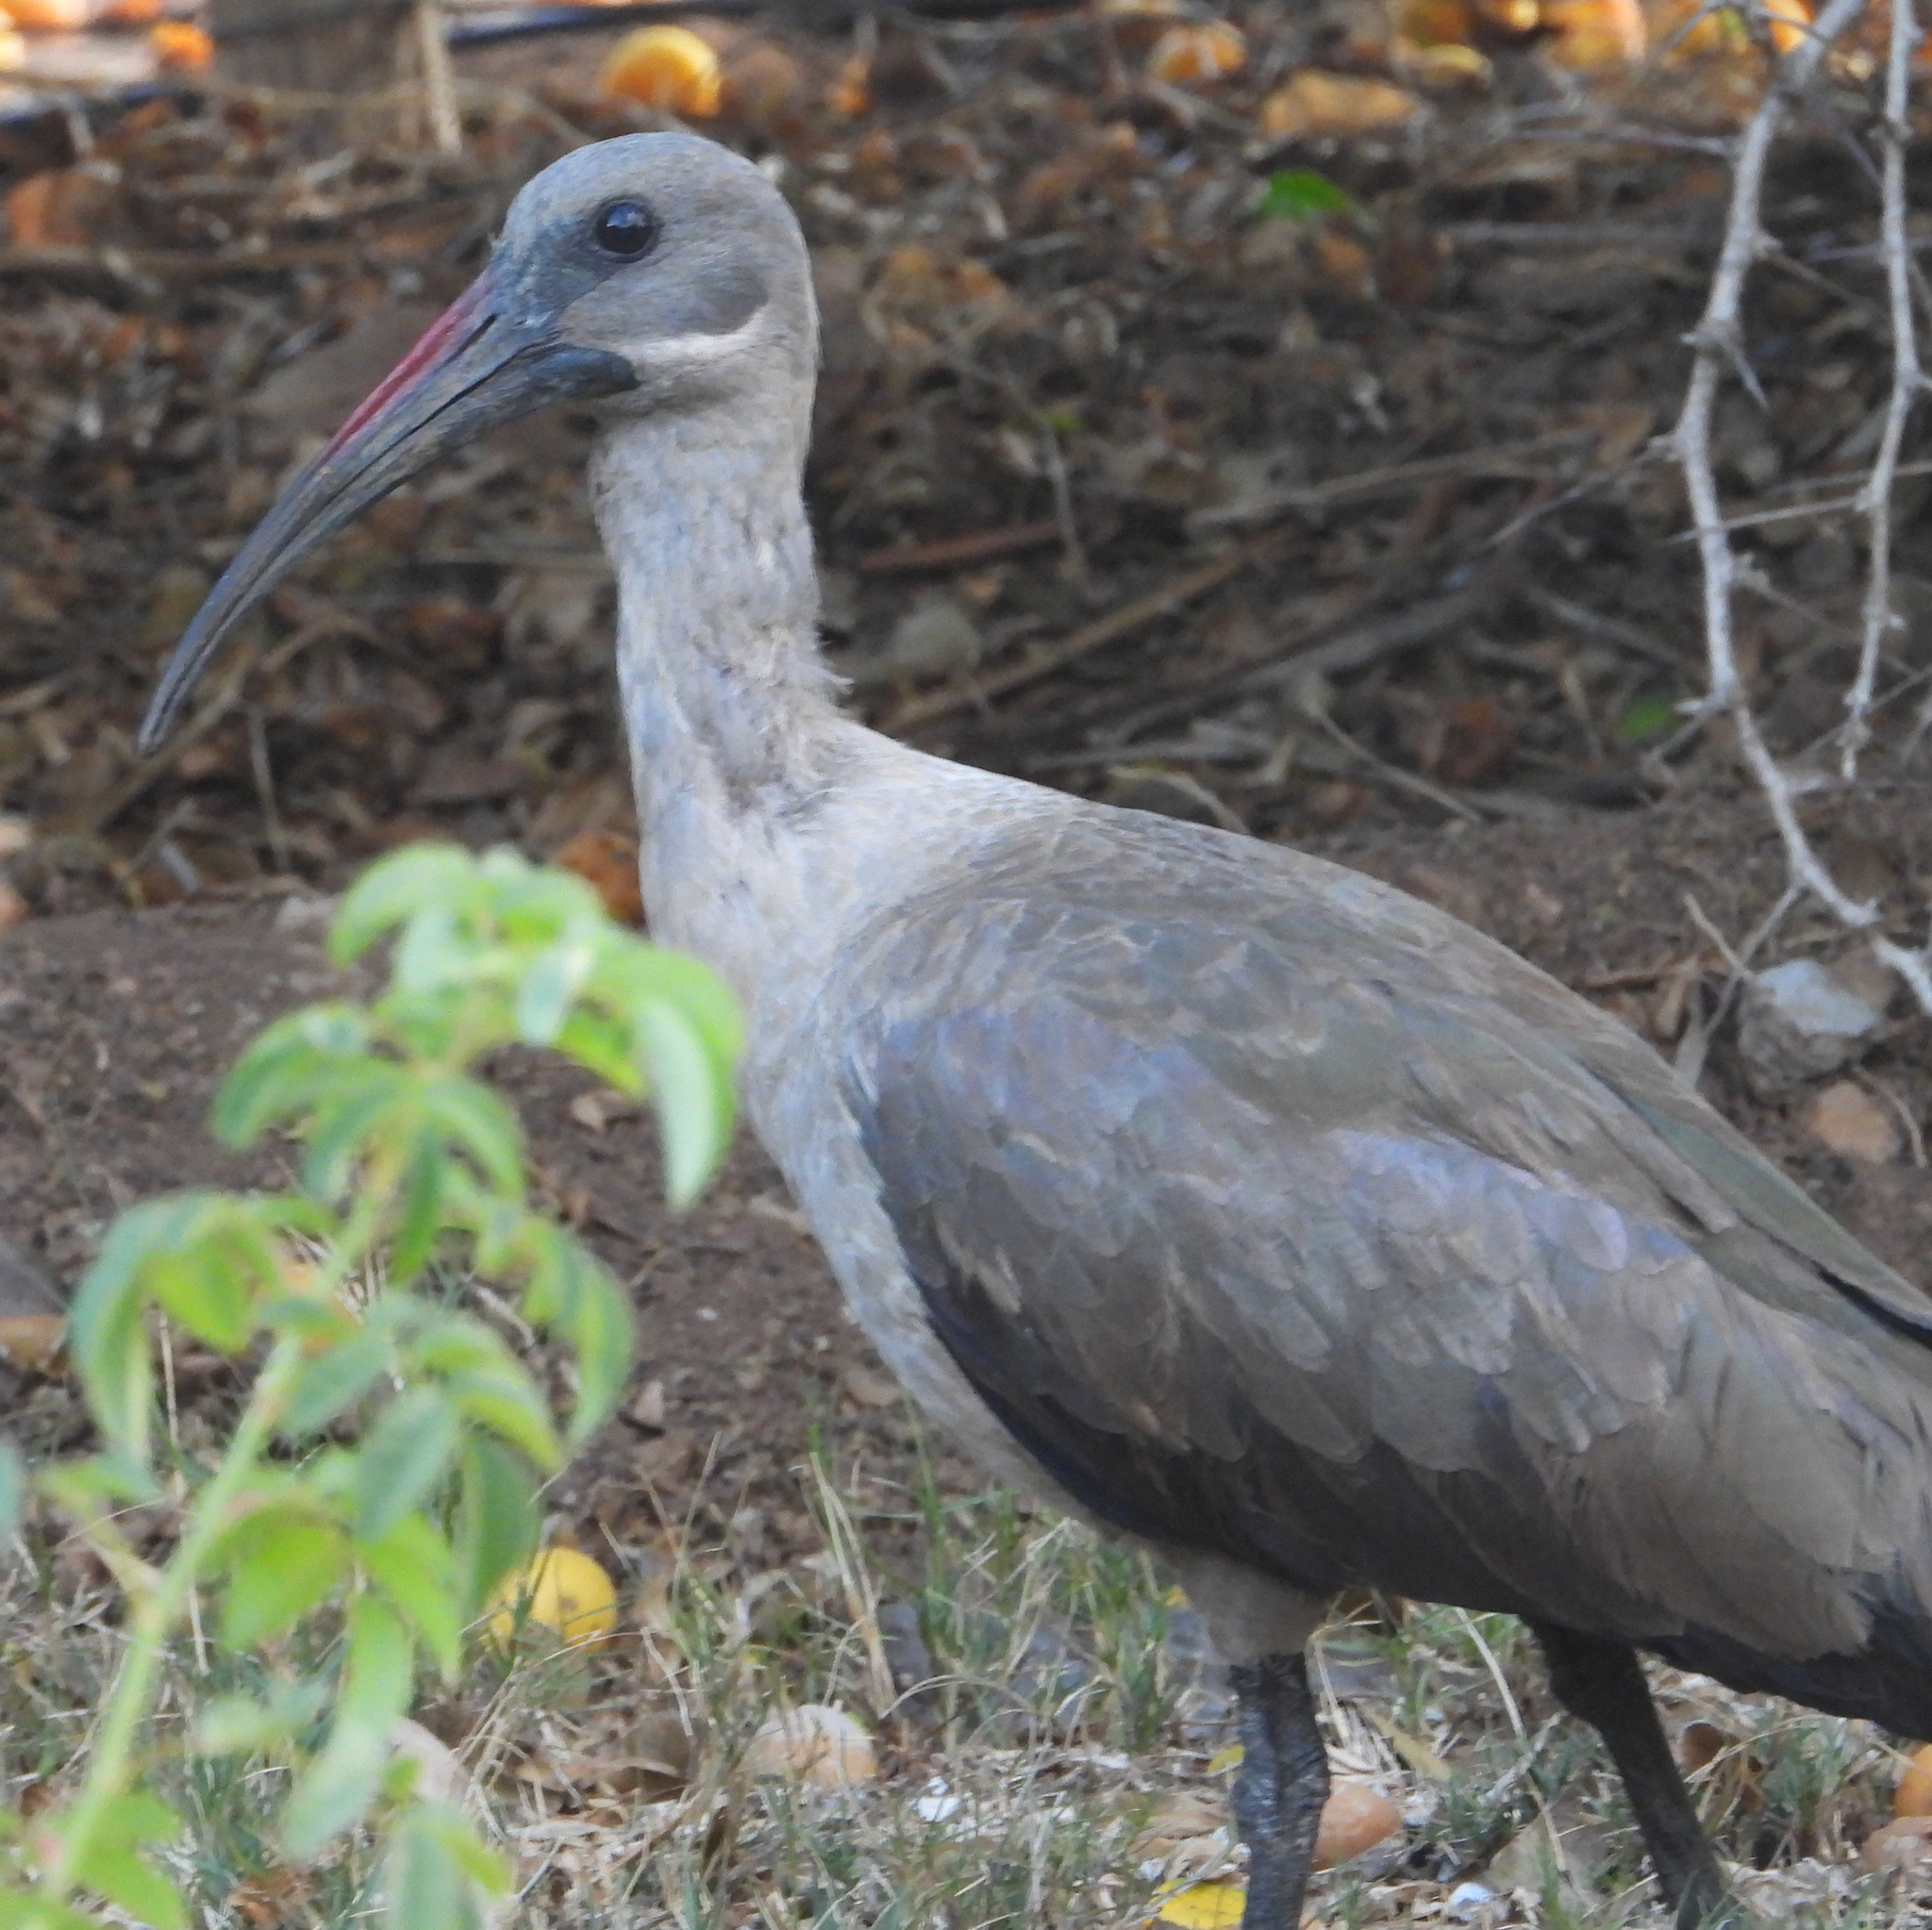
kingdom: Animalia
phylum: Chordata
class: Aves
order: Pelecaniformes
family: Threskiornithidae
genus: Bostrychia
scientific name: Bostrychia hagedash
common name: Hadada ibis
